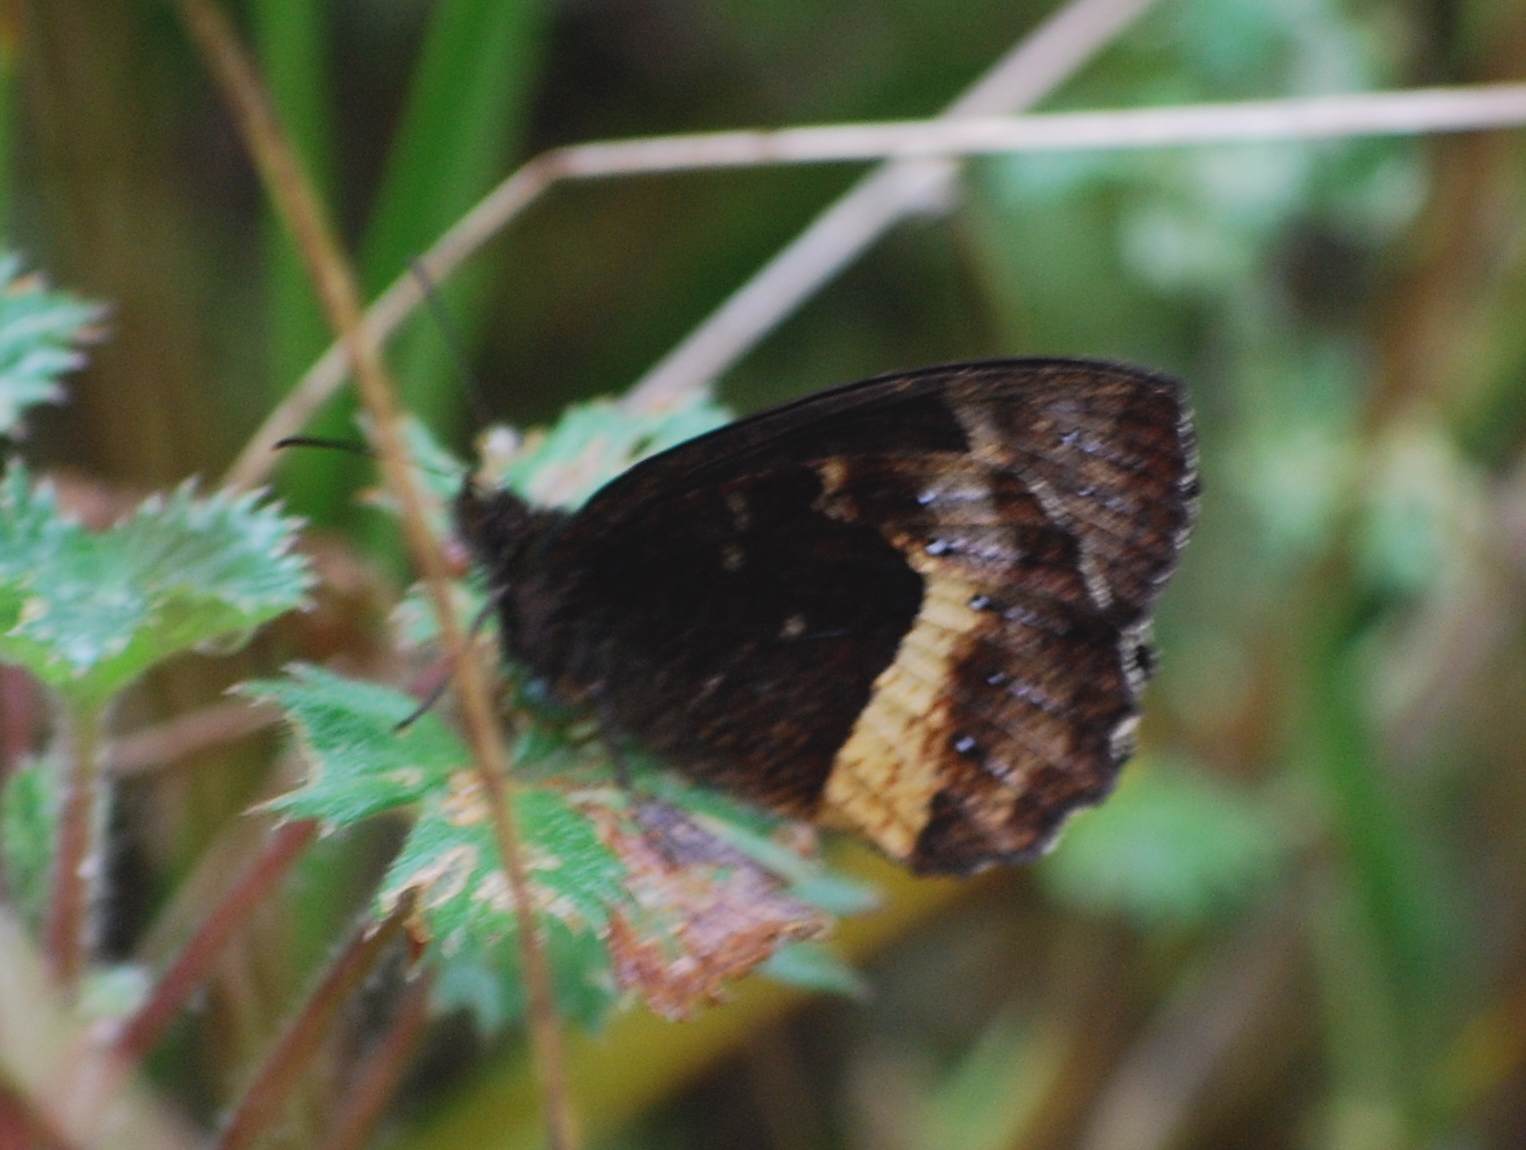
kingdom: Animalia
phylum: Arthropoda
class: Insecta
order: Lepidoptera
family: Nymphalidae
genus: Pedaliodes
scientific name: Pedaliodes phaea
